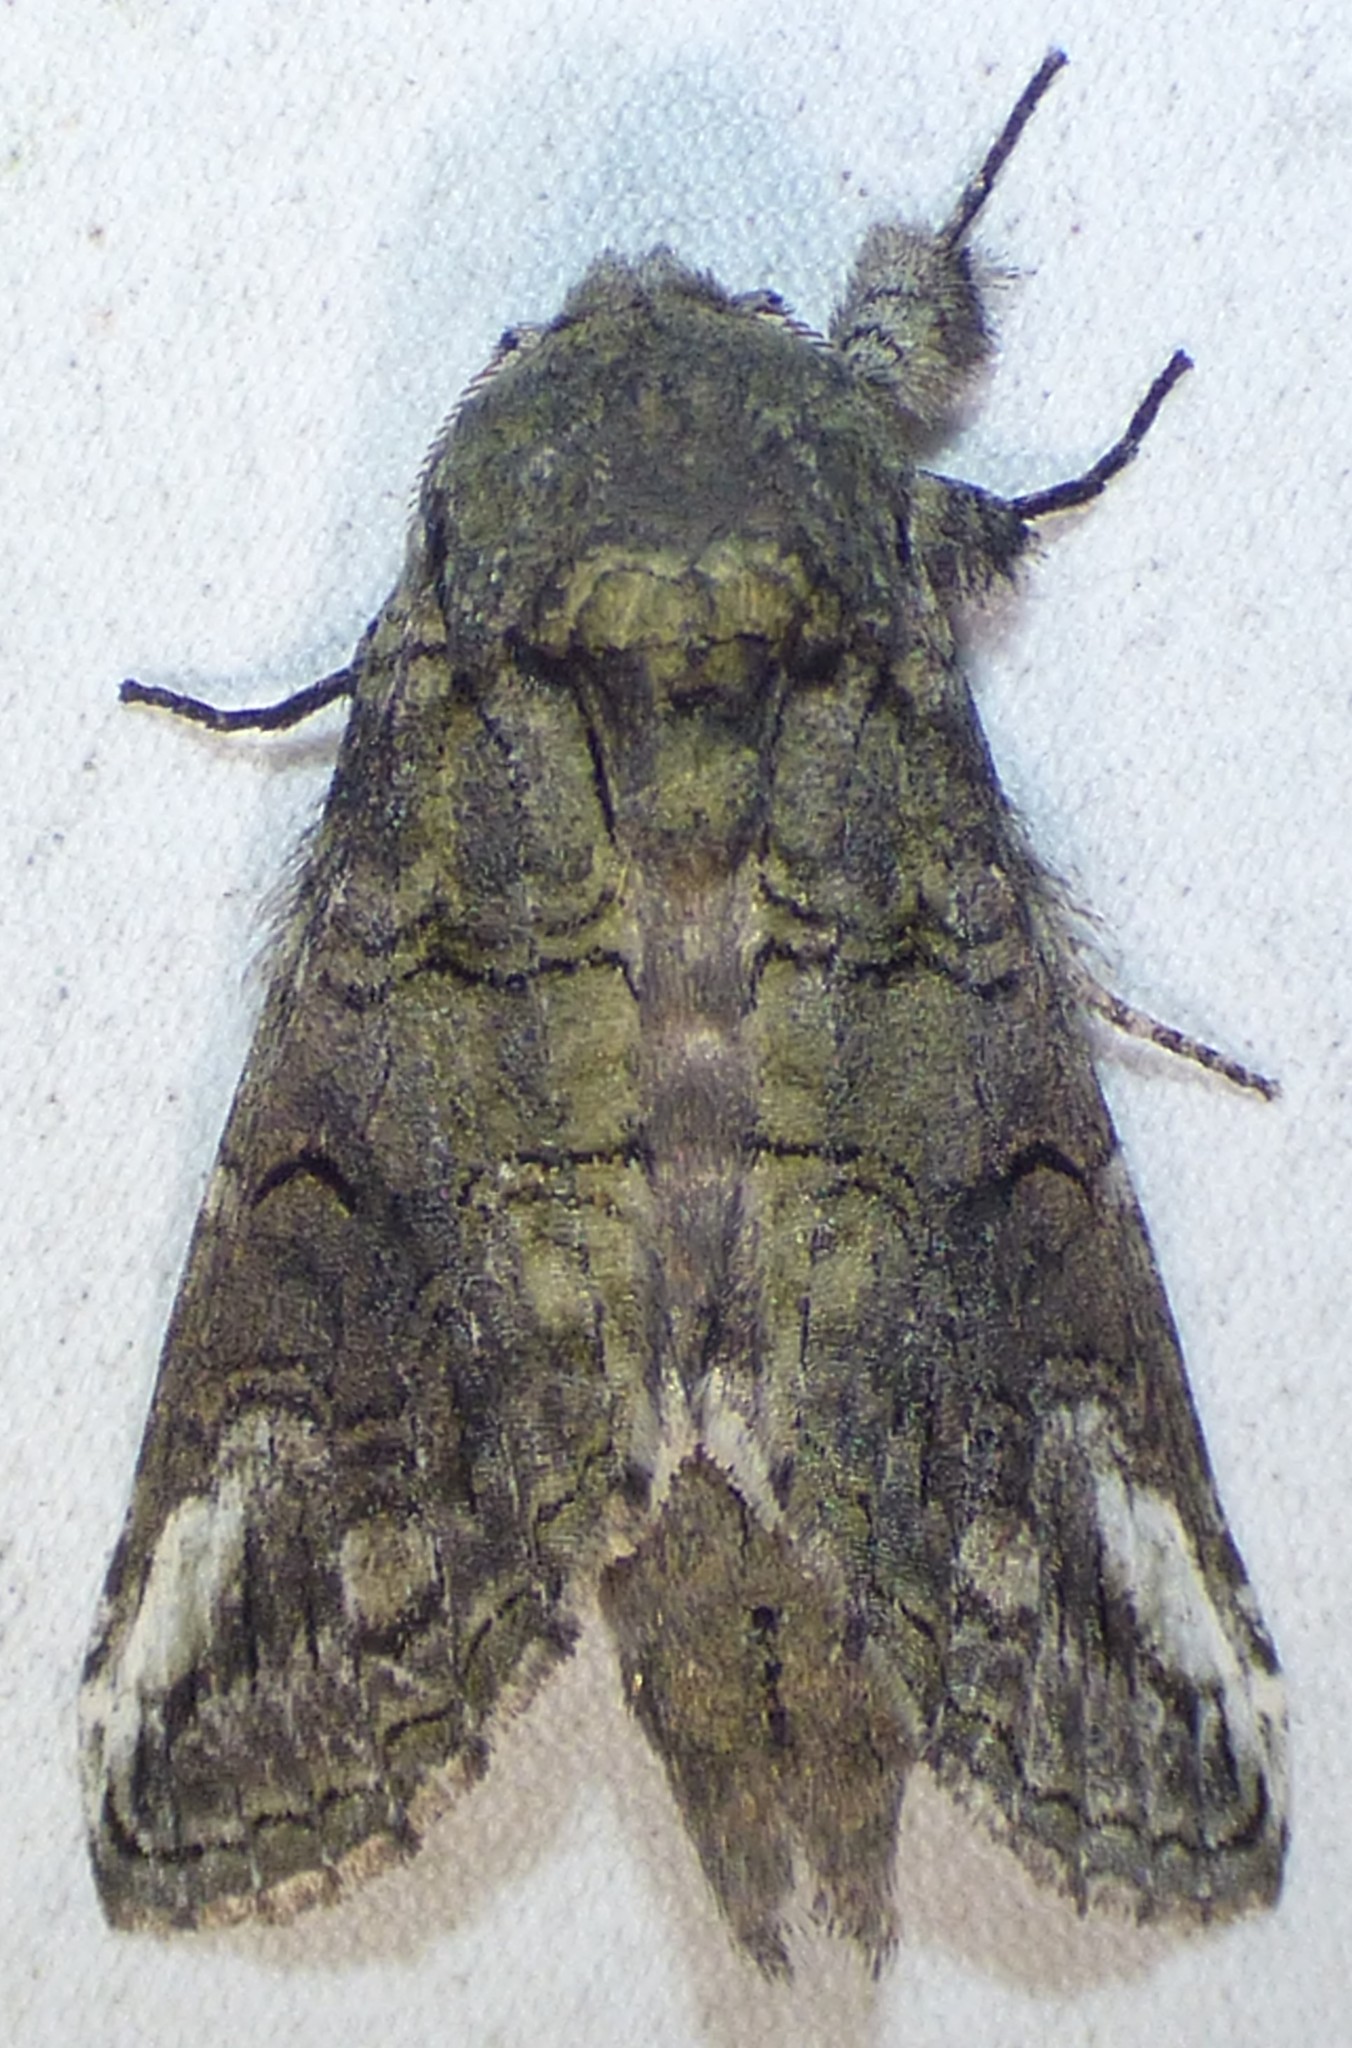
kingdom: Animalia
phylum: Arthropoda
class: Insecta
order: Lepidoptera
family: Notodontidae
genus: Heterocampa
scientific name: Heterocampa obliqua
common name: Oblique heterocampa
